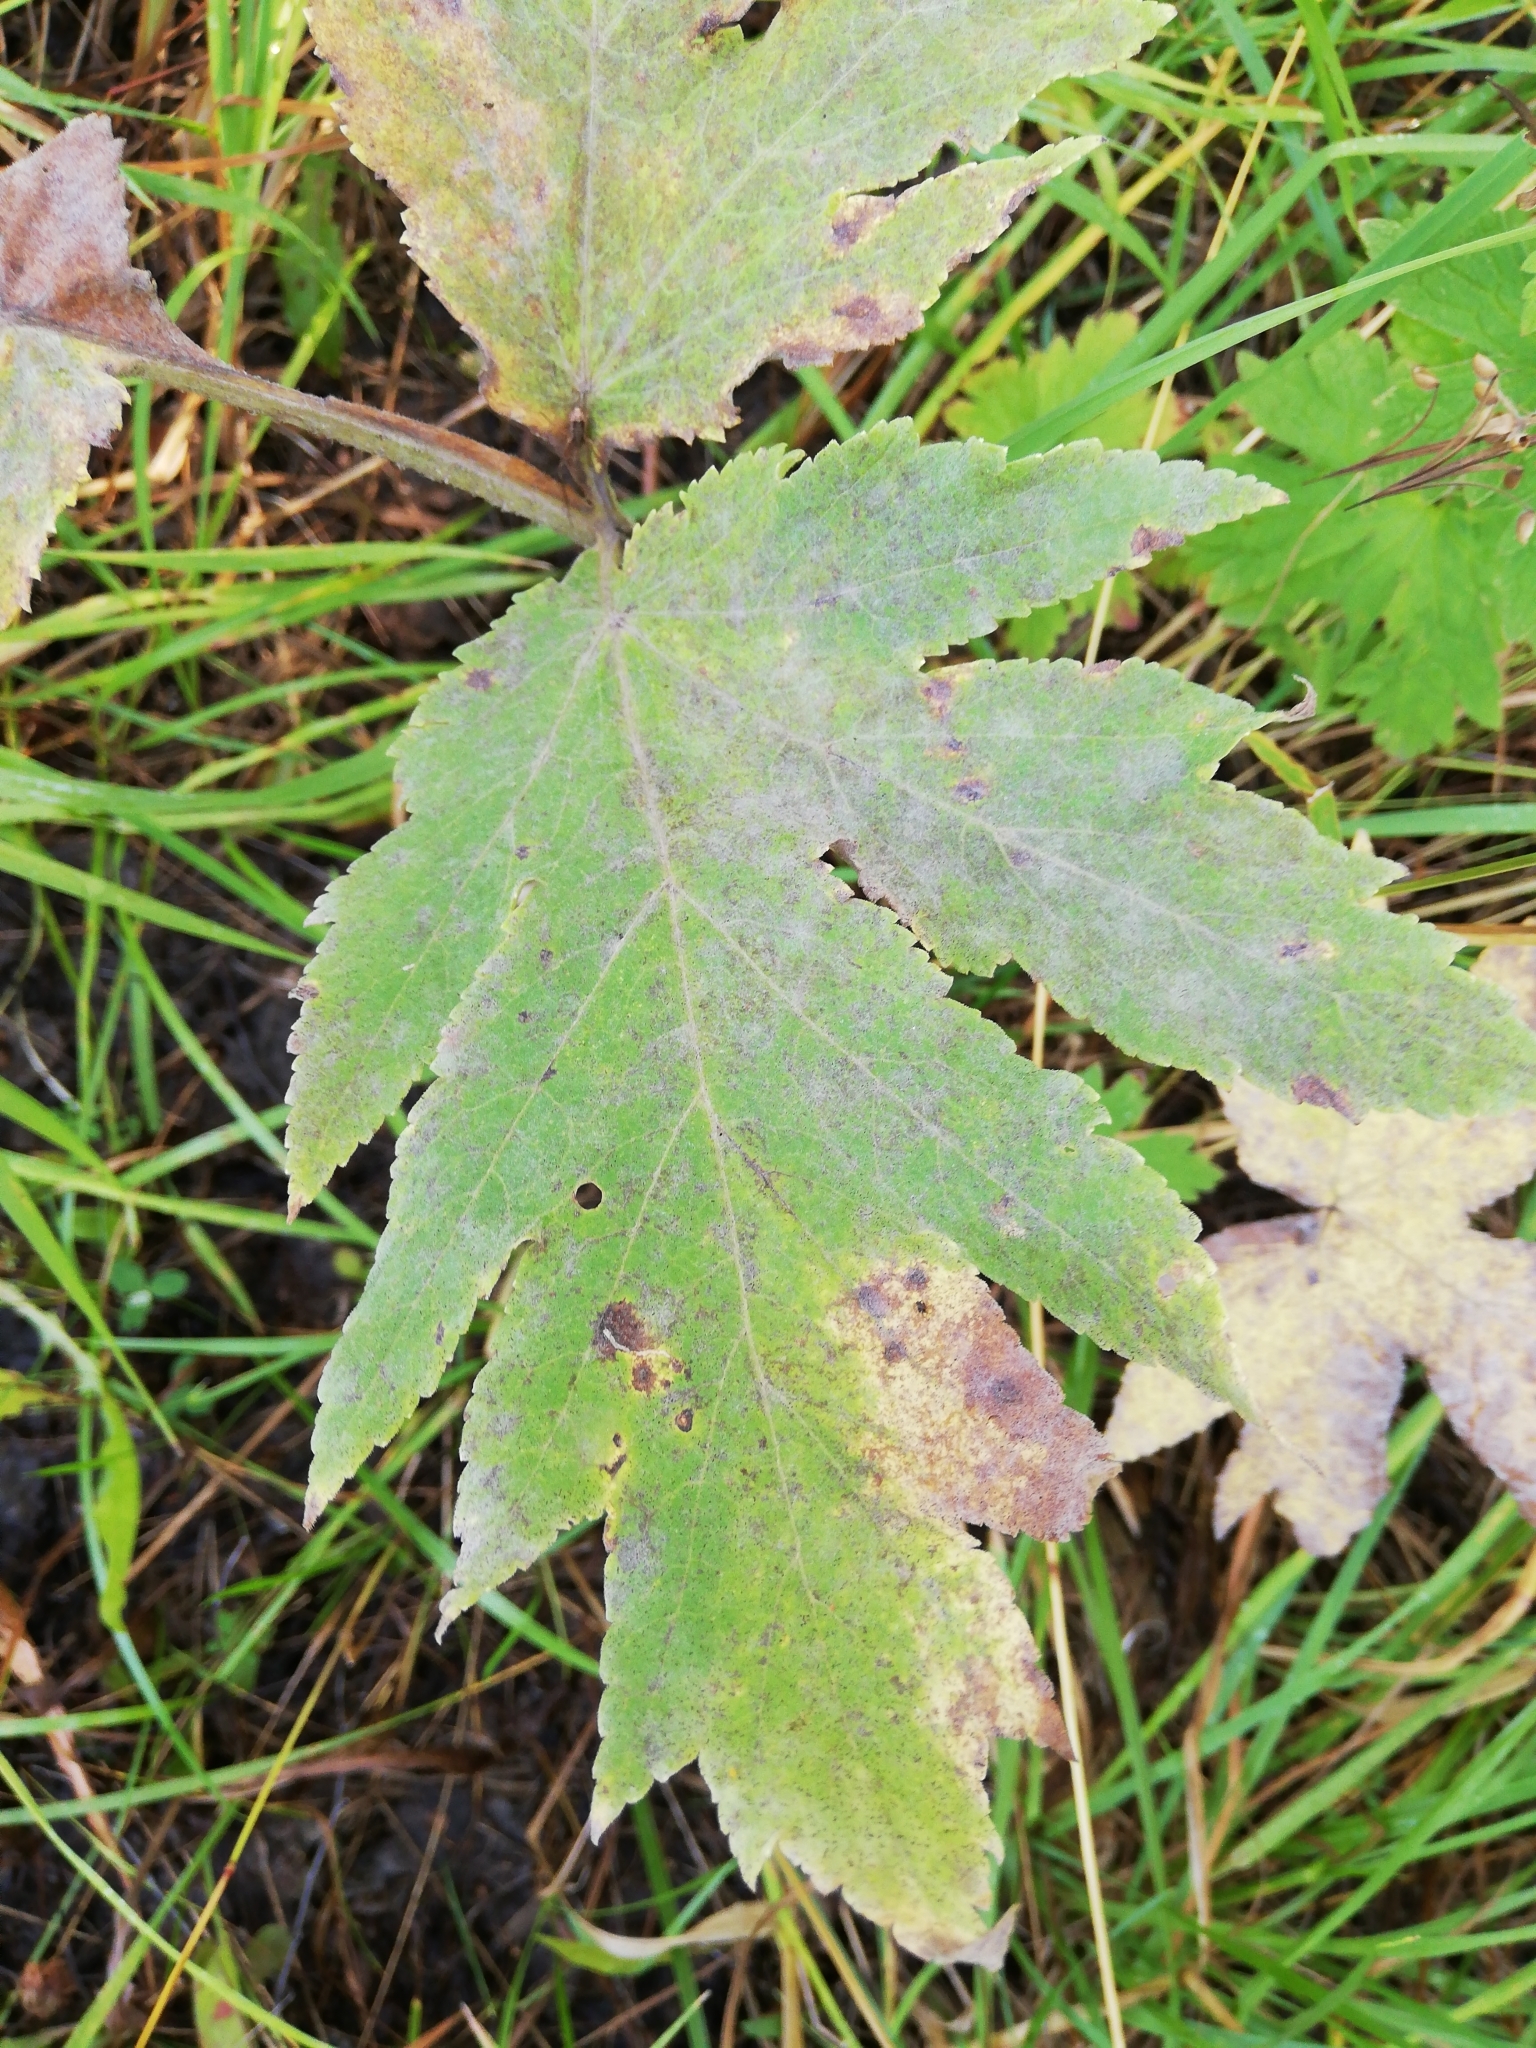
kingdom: Plantae
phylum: Tracheophyta
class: Magnoliopsida
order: Apiales
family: Apiaceae
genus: Heracleum
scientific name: Heracleum dissectum
